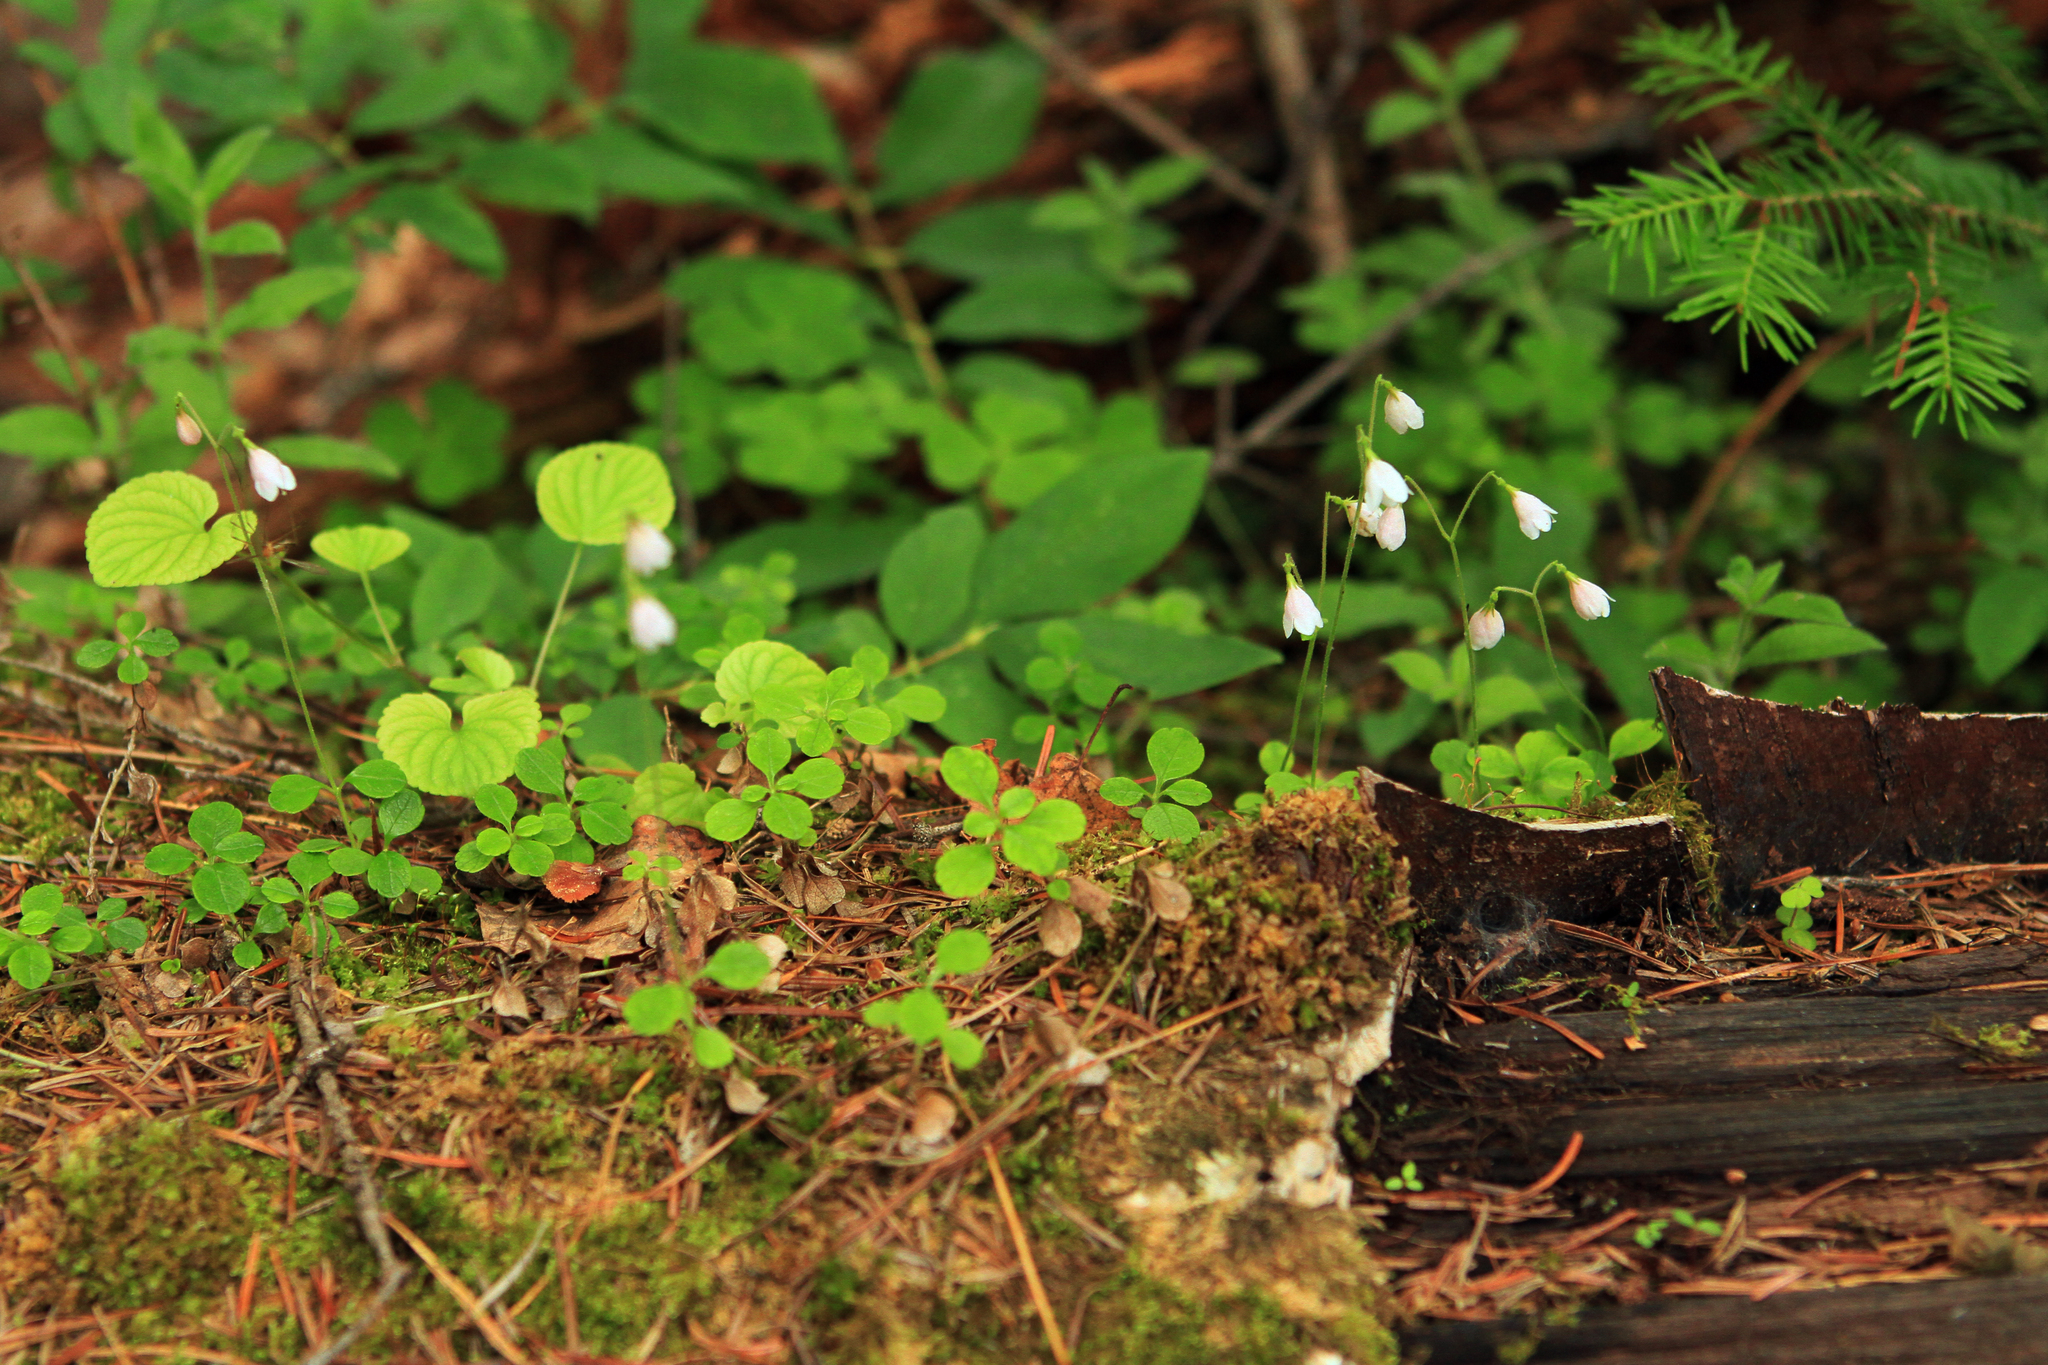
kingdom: Plantae
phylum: Tracheophyta
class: Magnoliopsida
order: Dipsacales
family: Caprifoliaceae
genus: Linnaea
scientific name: Linnaea borealis
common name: Twinflower
